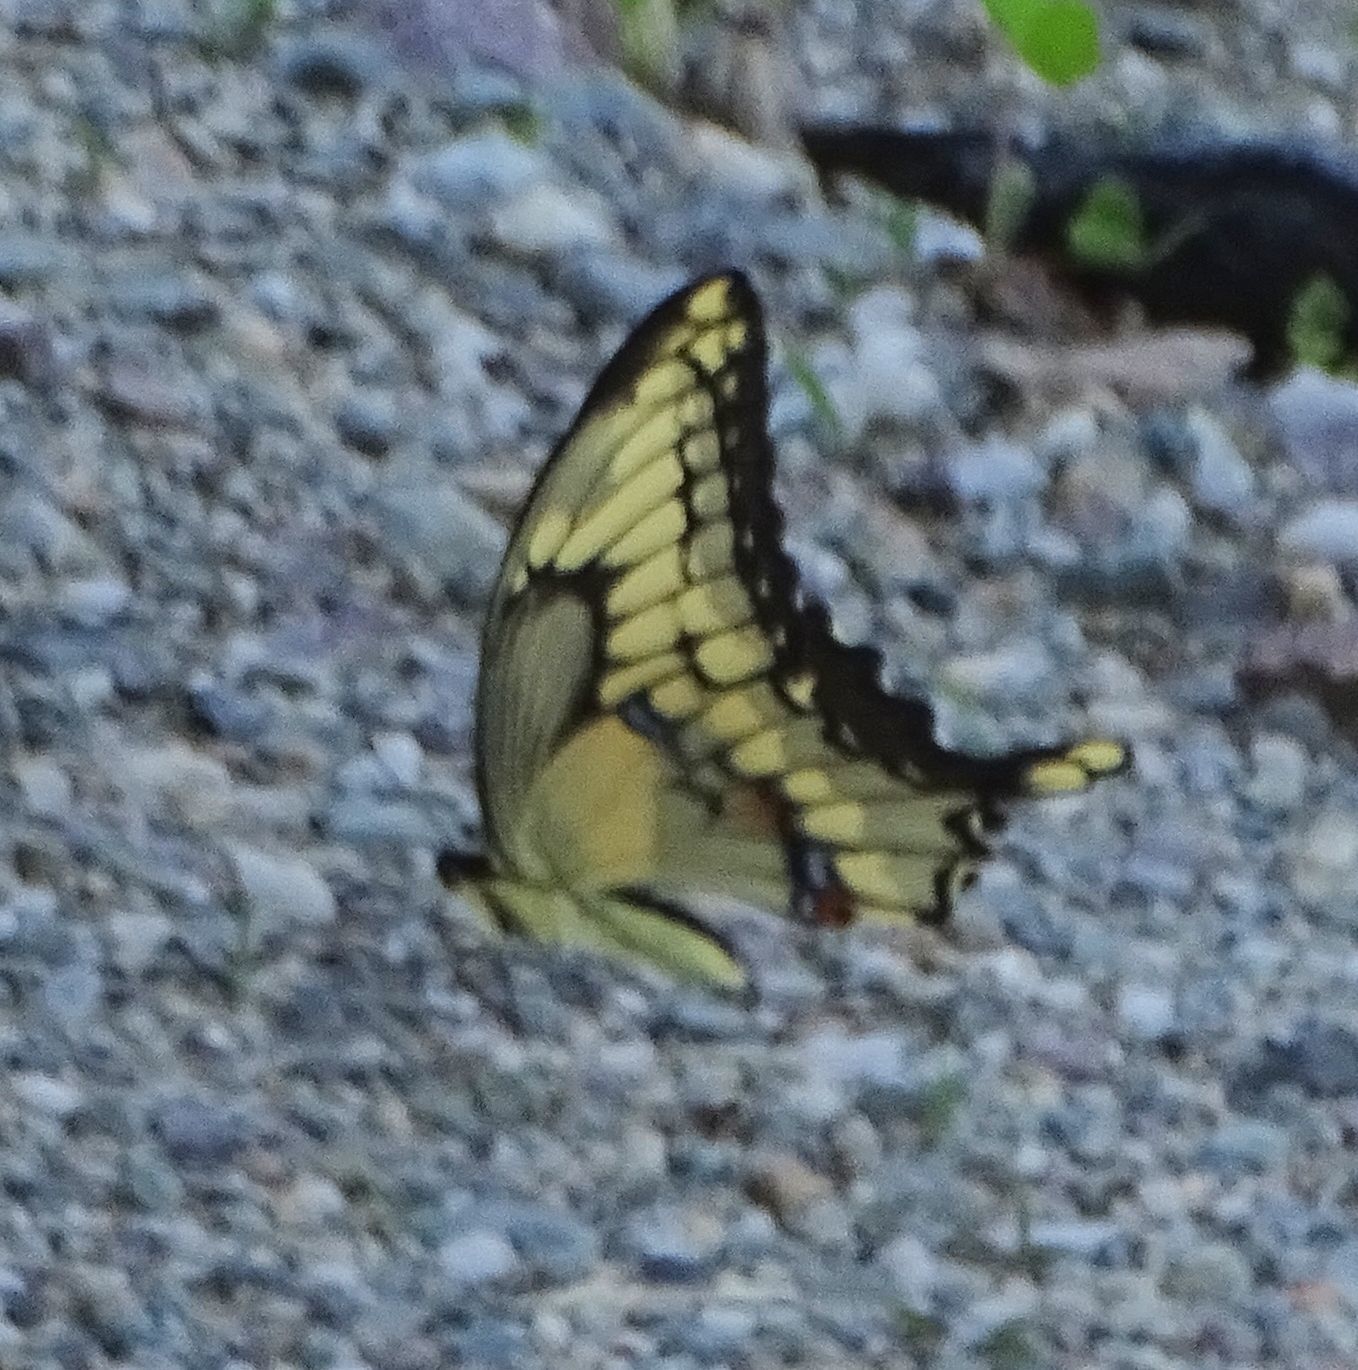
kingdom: Animalia
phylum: Arthropoda
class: Insecta
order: Lepidoptera
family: Papilionidae
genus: Papilio
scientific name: Papilio cresphontes
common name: Giant swallowtail
